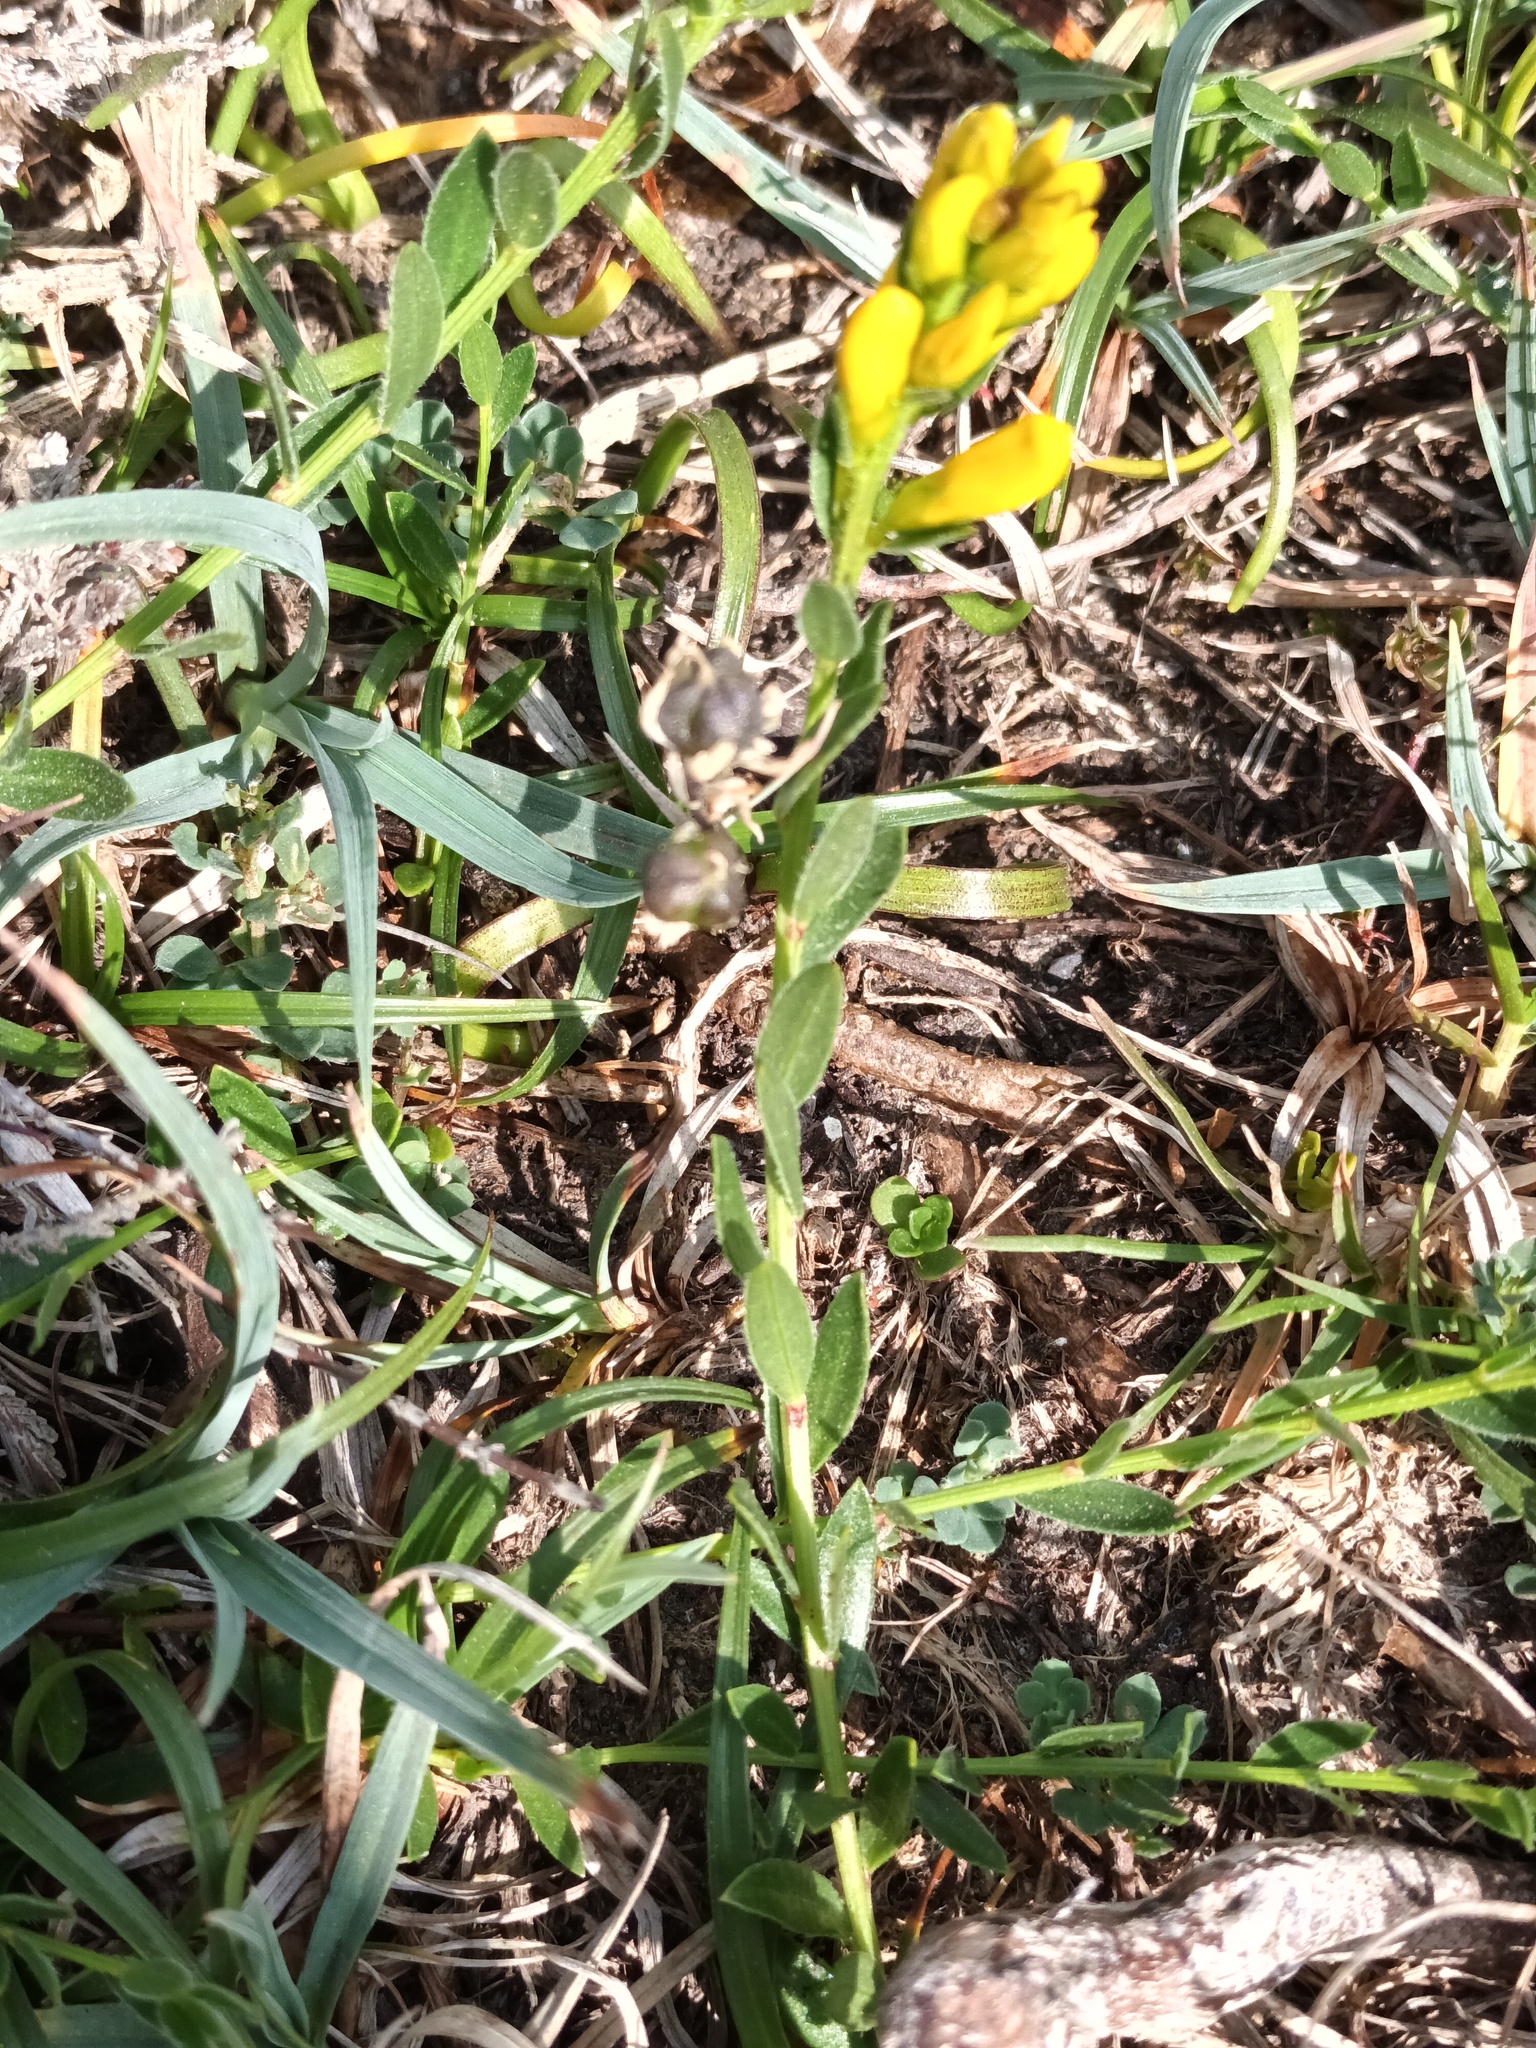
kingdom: Plantae
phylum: Tracheophyta
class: Magnoliopsida
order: Fabales
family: Fabaceae
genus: Genista
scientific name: Genista tinctoria
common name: Dyer's greenweed
